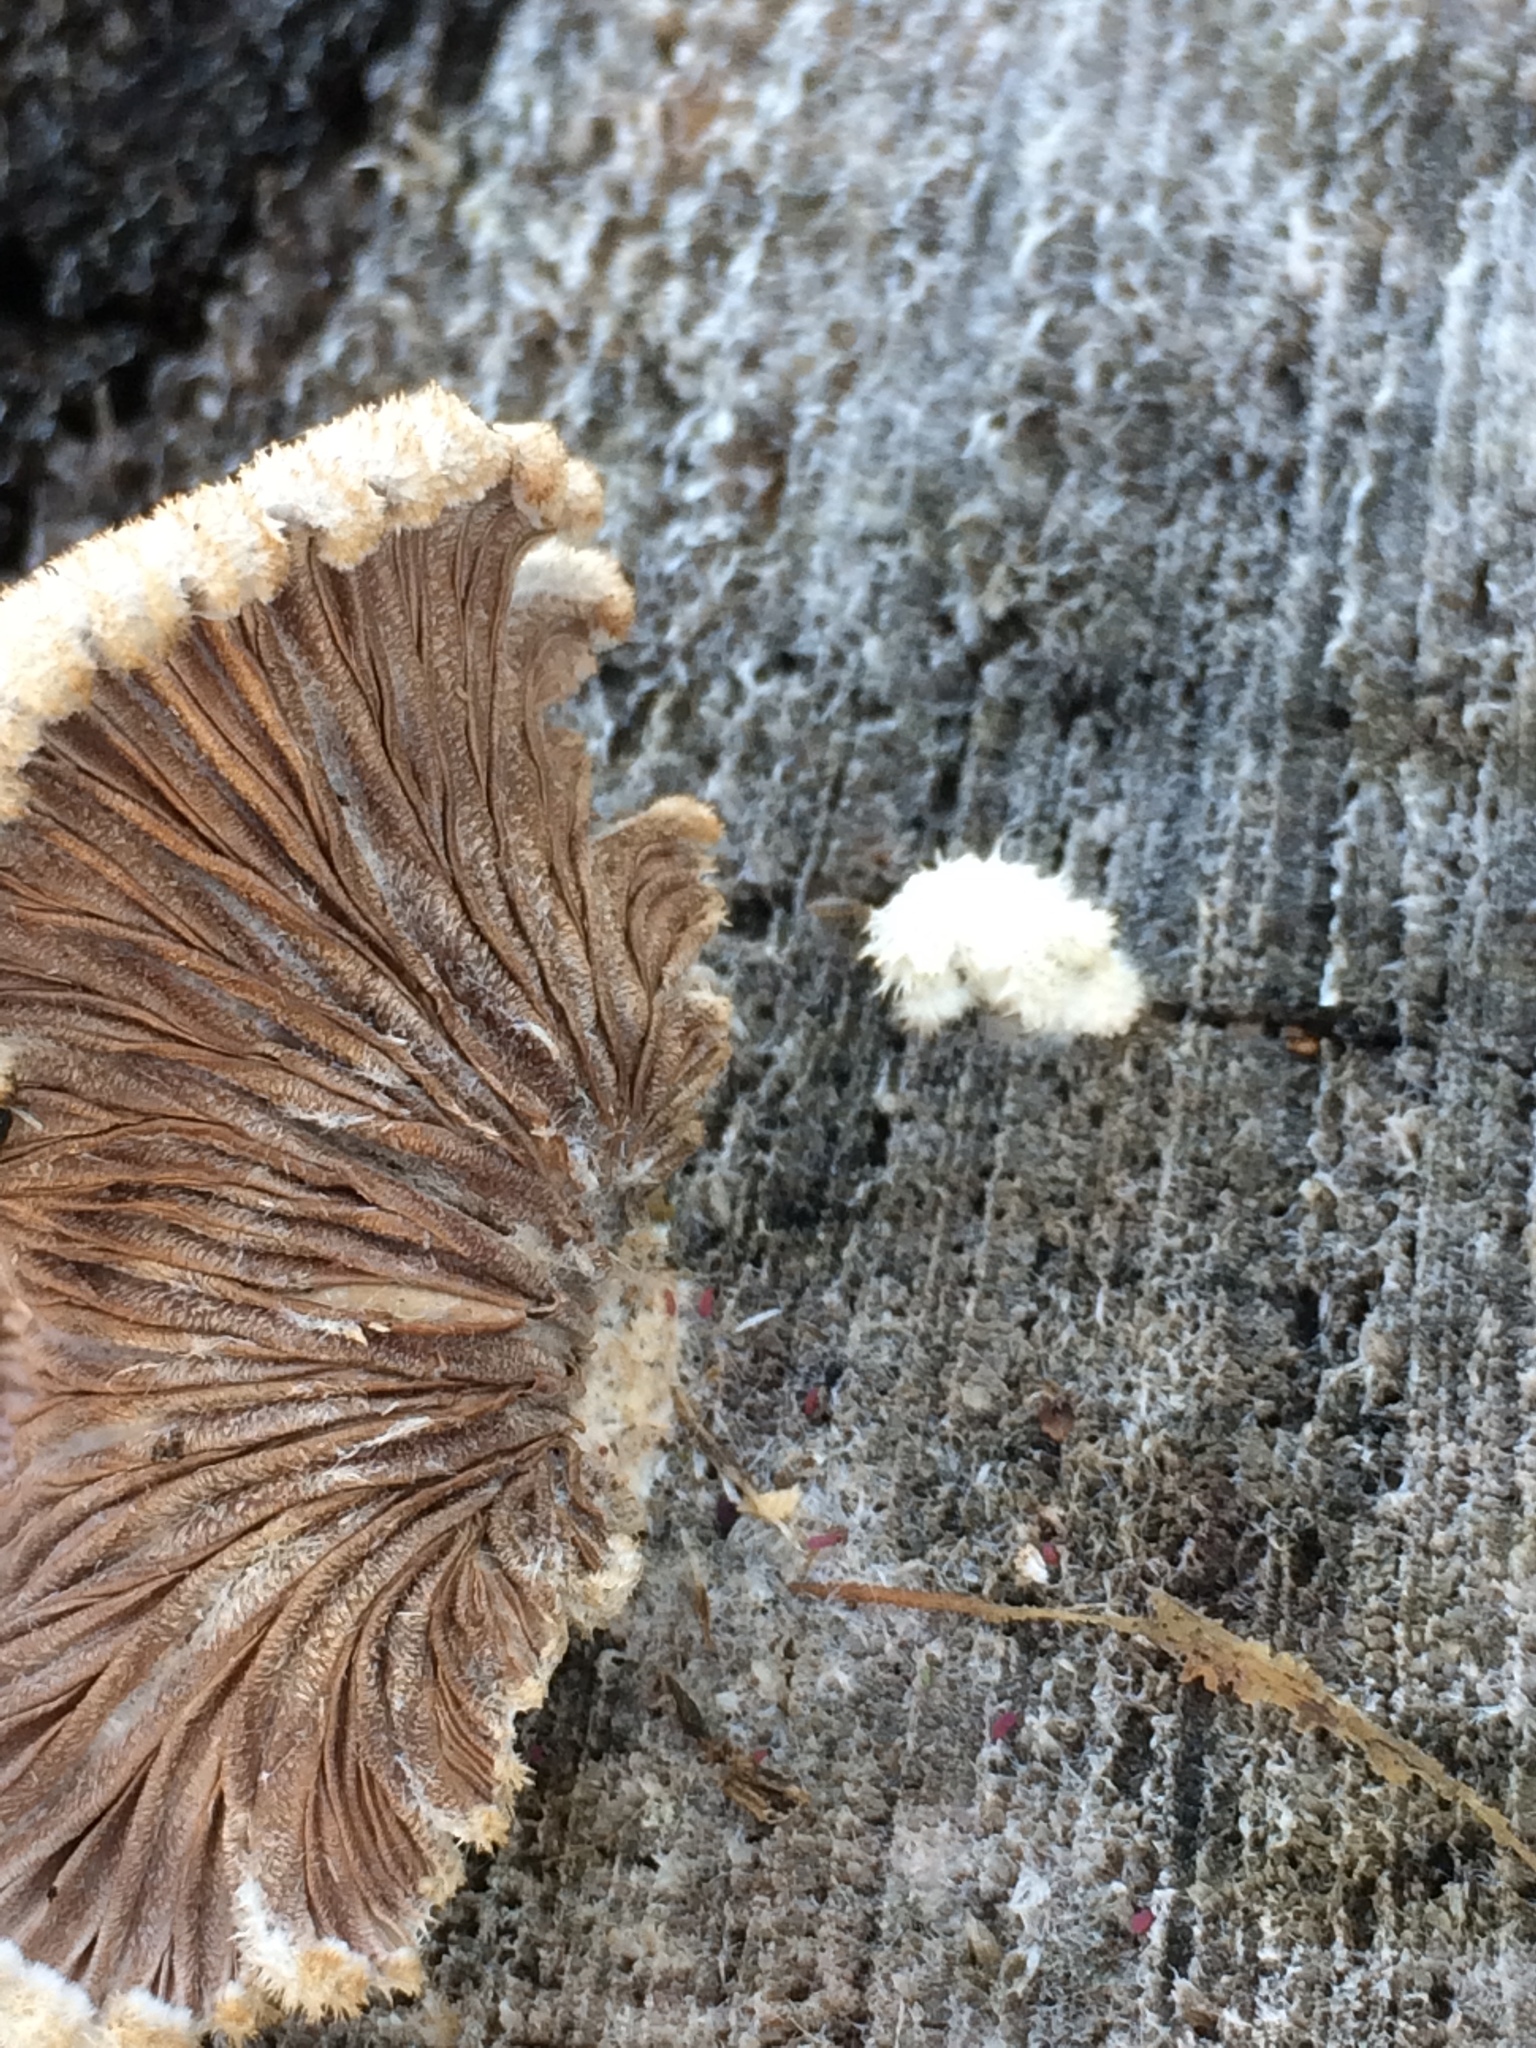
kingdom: Fungi
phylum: Basidiomycota
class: Agaricomycetes
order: Agaricales
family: Schizophyllaceae
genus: Schizophyllum
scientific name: Schizophyllum commune
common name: Common porecrust
